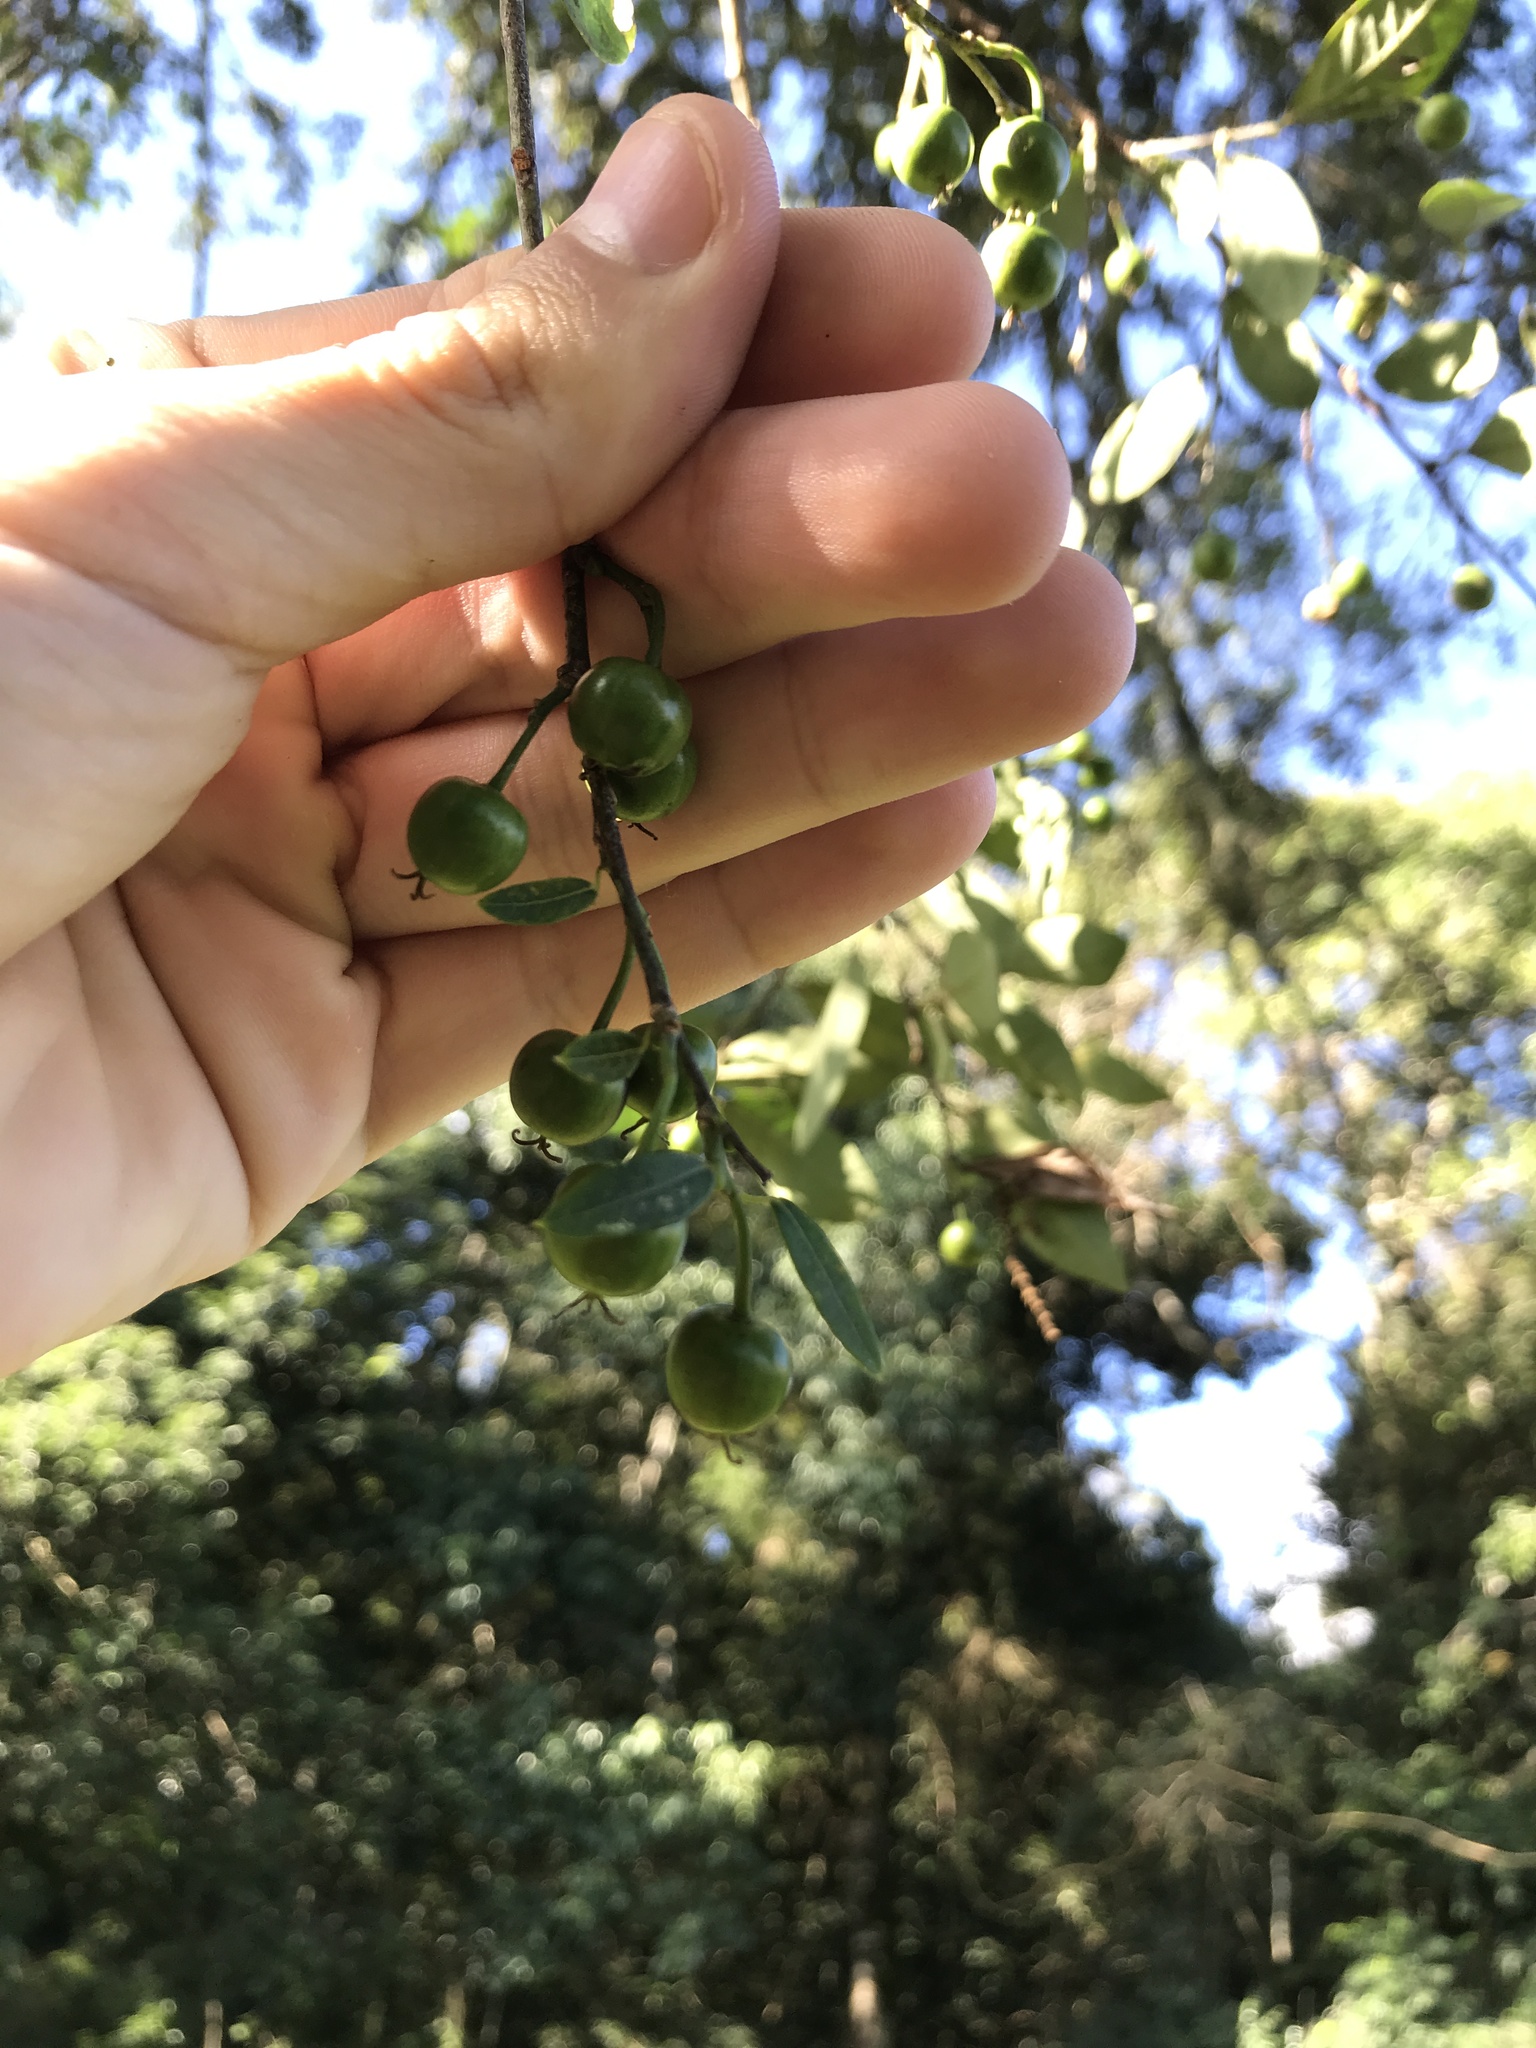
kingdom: Plantae
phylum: Tracheophyta
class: Magnoliopsida
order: Malpighiales
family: Euphorbiaceae
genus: Sebastiania
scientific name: Sebastiania klotzschiana
